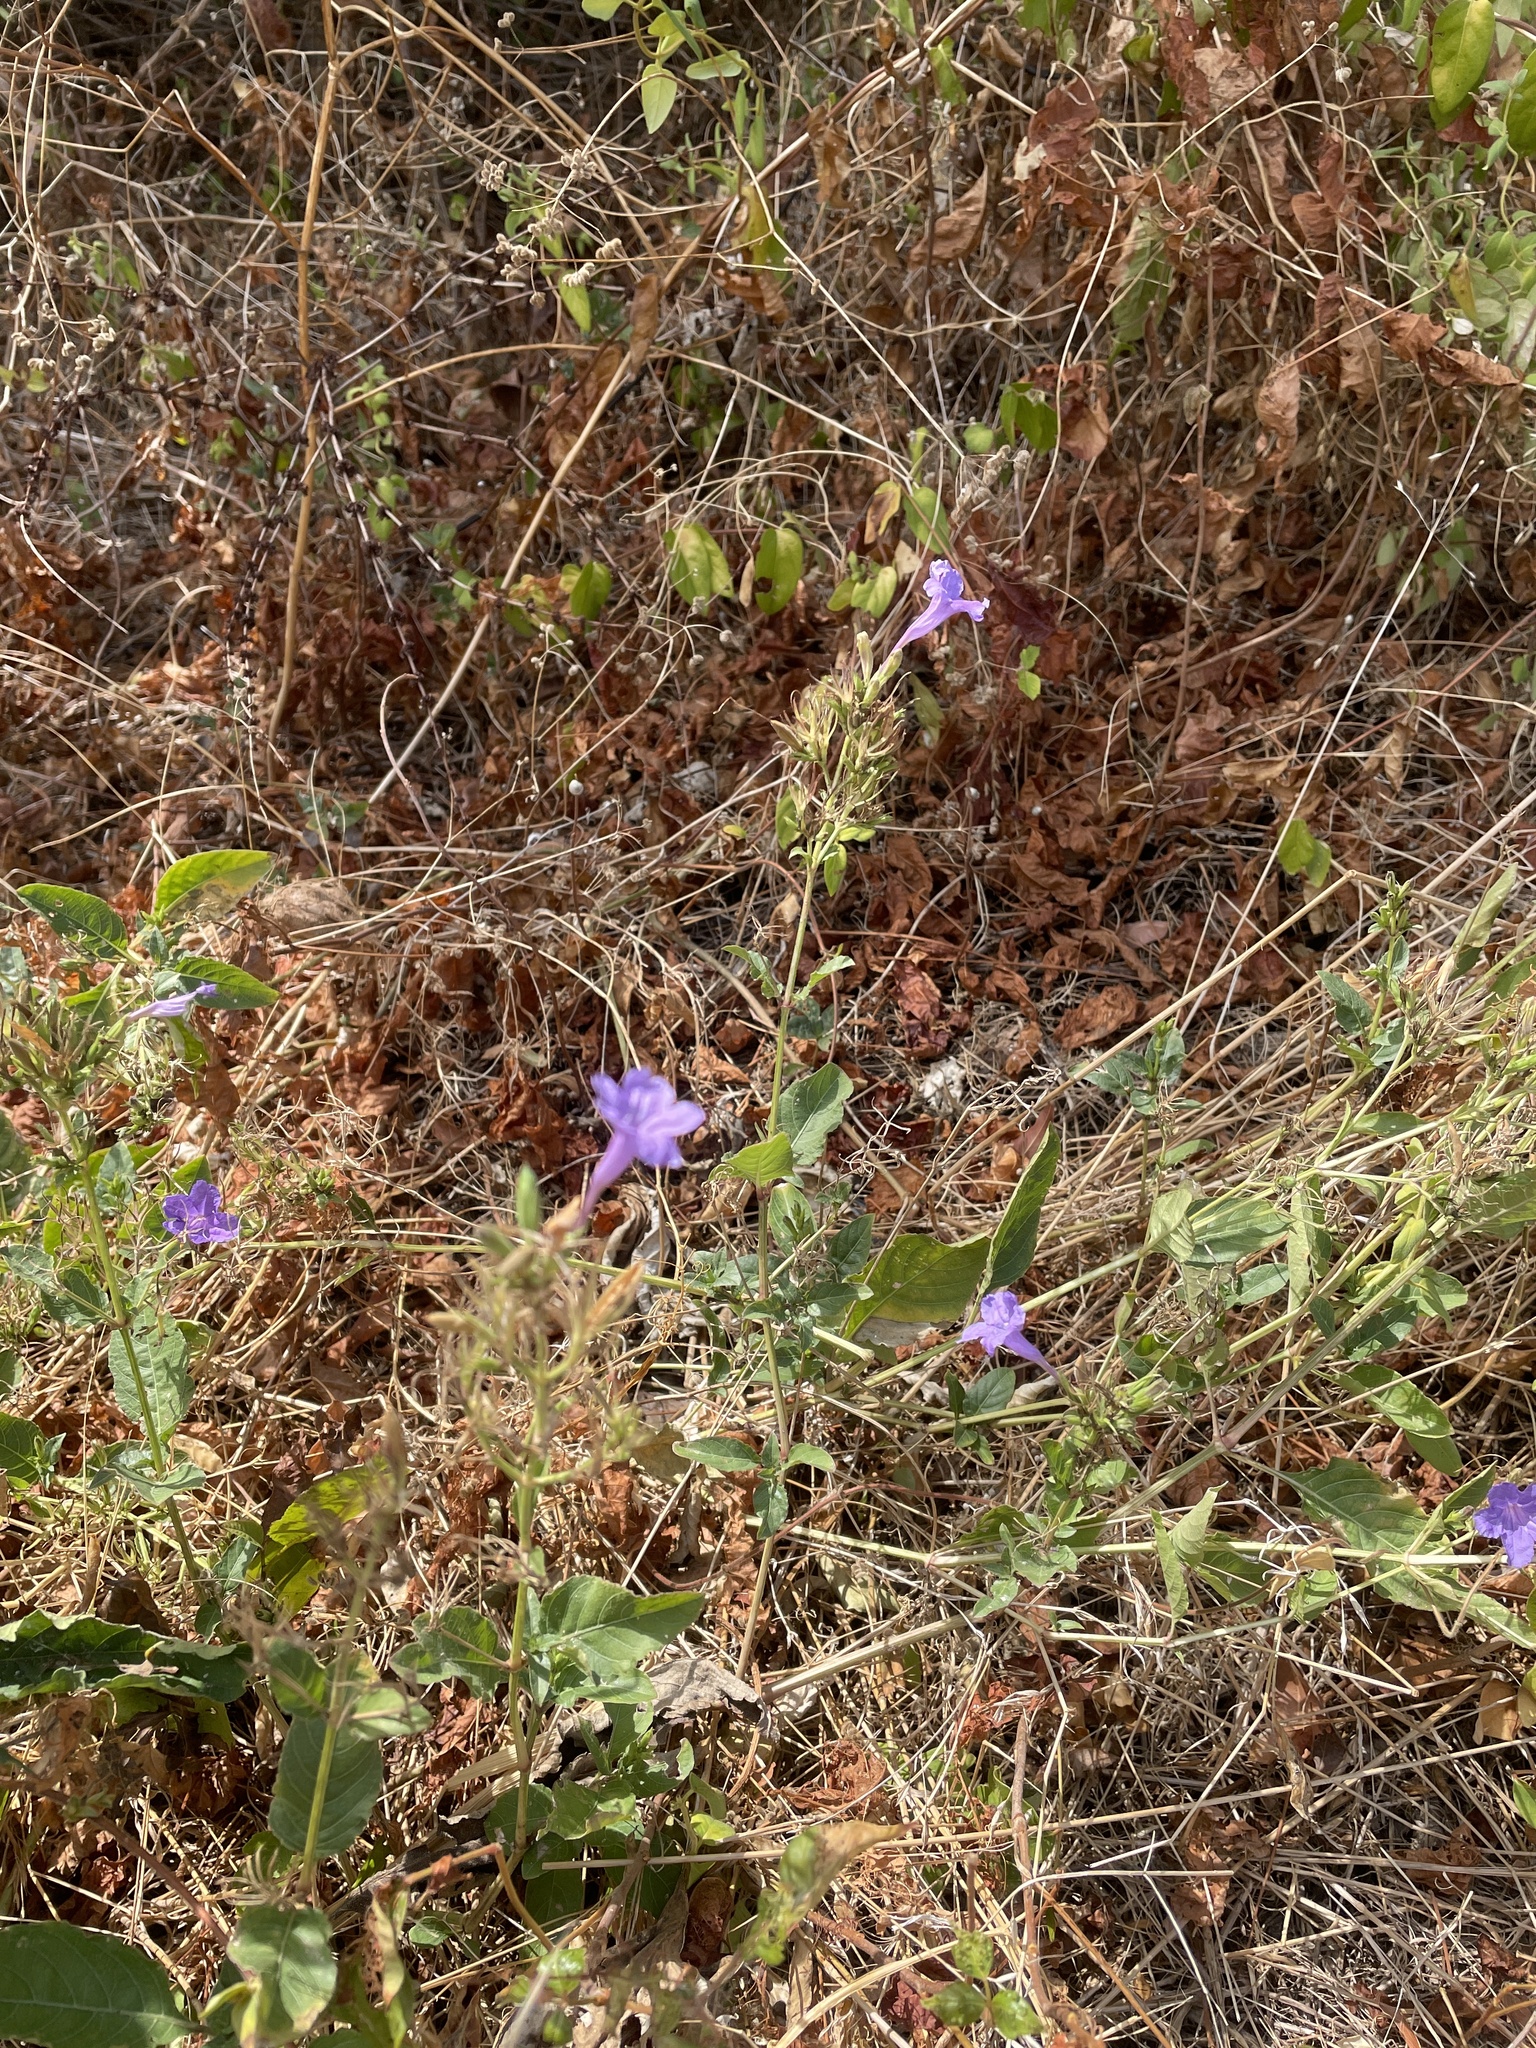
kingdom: Plantae
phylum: Tracheophyta
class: Magnoliopsida
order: Lamiales
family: Acanthaceae
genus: Ruellia
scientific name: Ruellia ciliatiflora
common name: Hairyflower wild petunia
